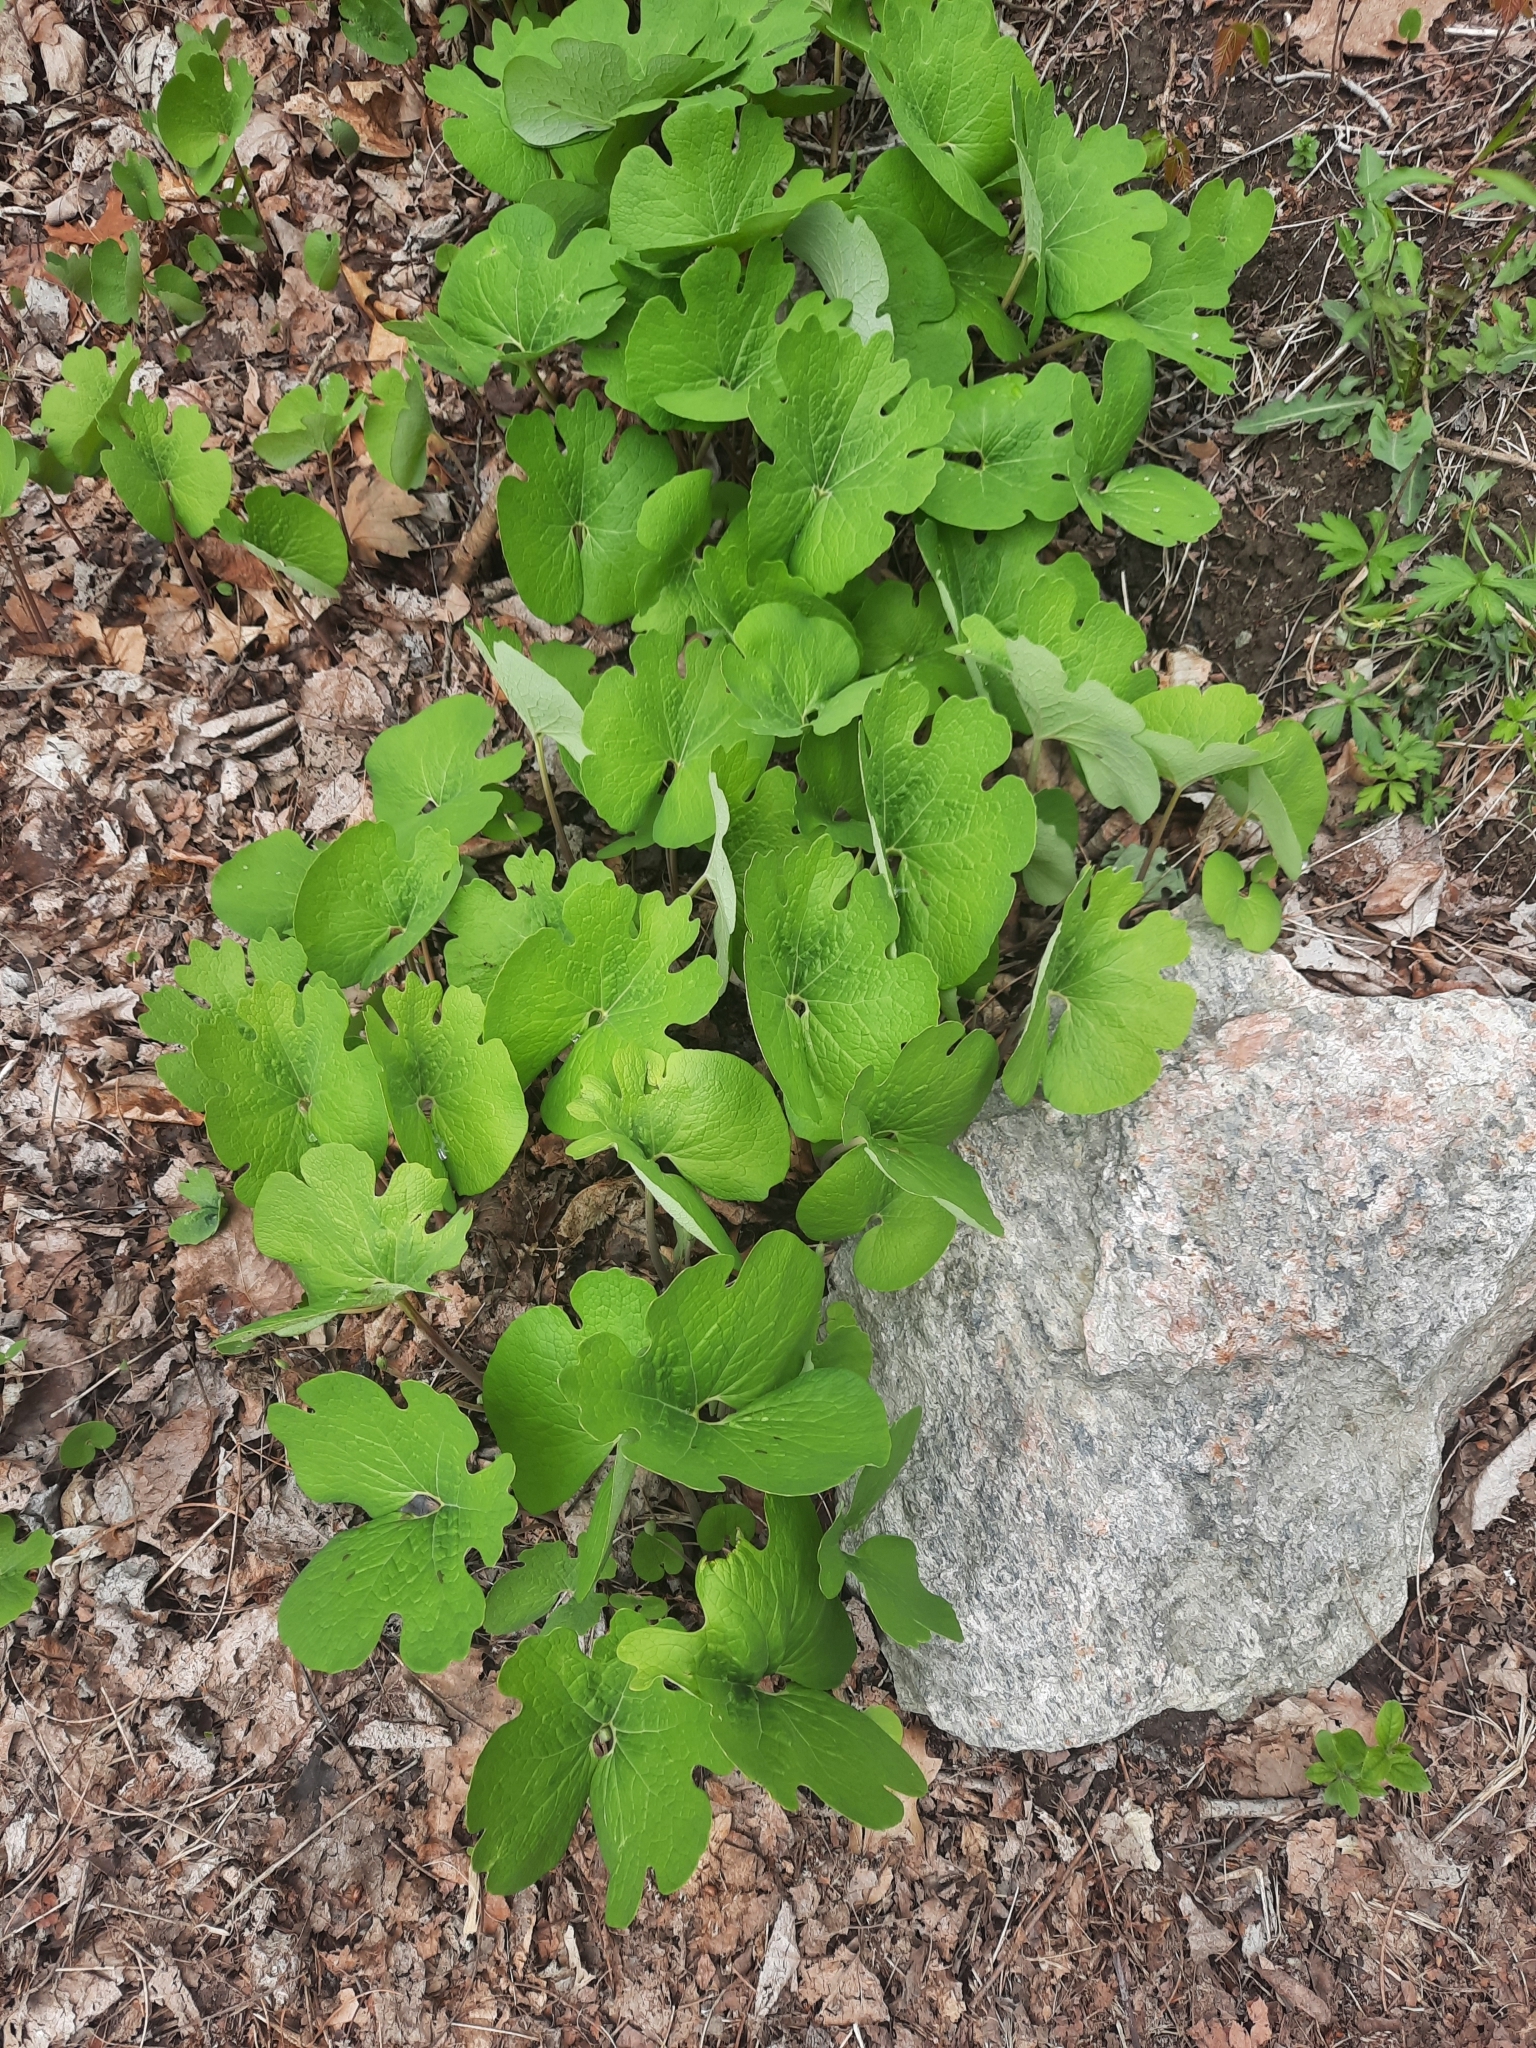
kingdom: Plantae
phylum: Tracheophyta
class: Magnoliopsida
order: Ranunculales
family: Papaveraceae
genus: Sanguinaria
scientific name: Sanguinaria canadensis
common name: Bloodroot
